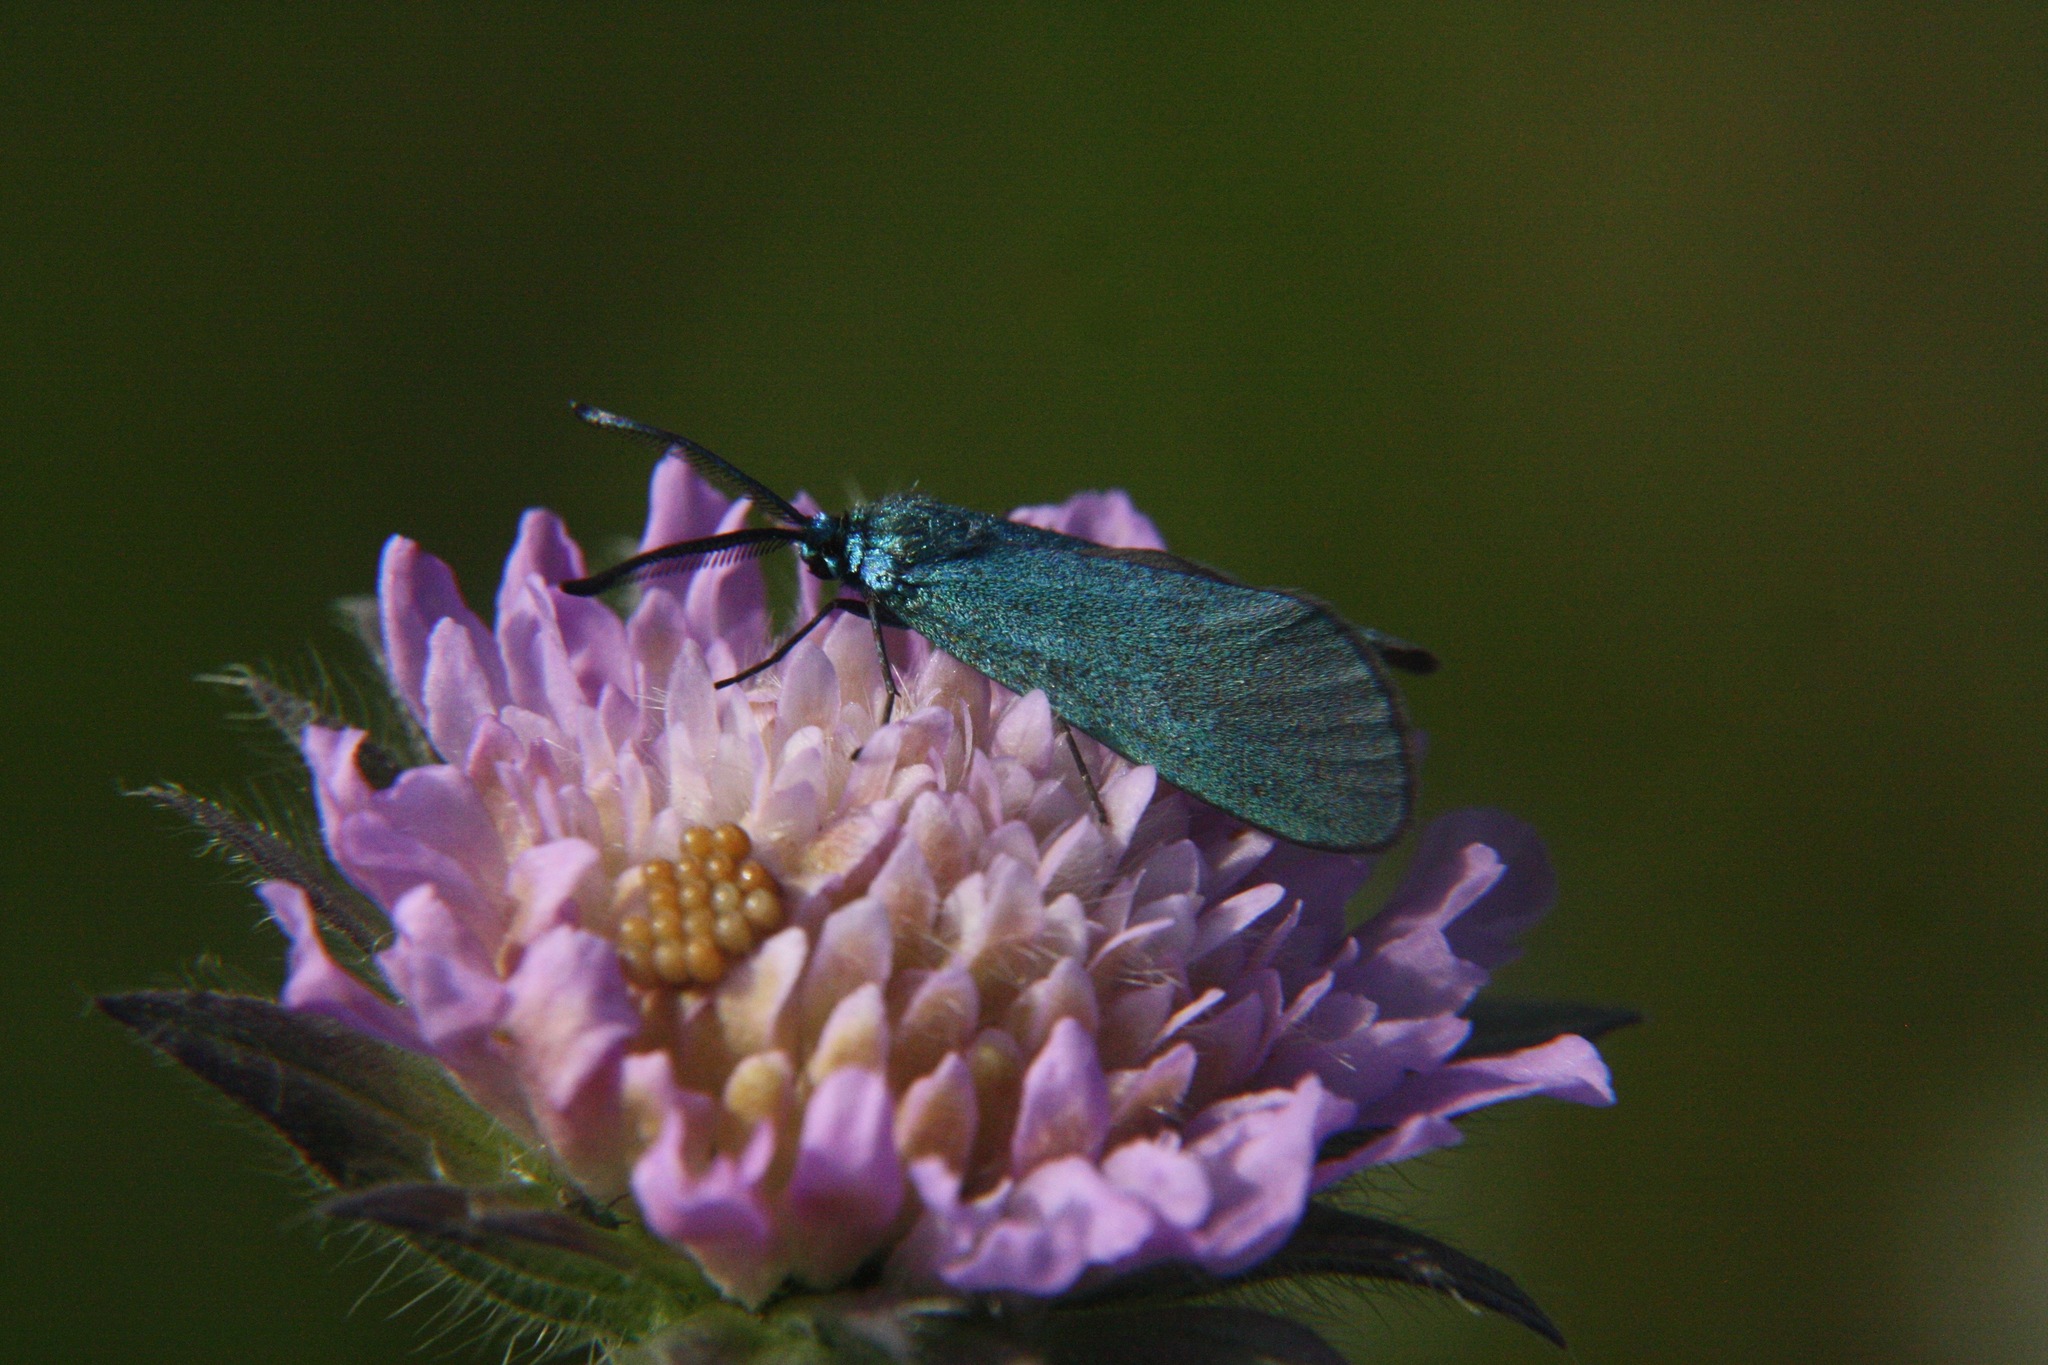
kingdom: Animalia
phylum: Arthropoda
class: Insecta
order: Lepidoptera
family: Zygaenidae
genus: Adscita
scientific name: Adscita statices
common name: Forester
